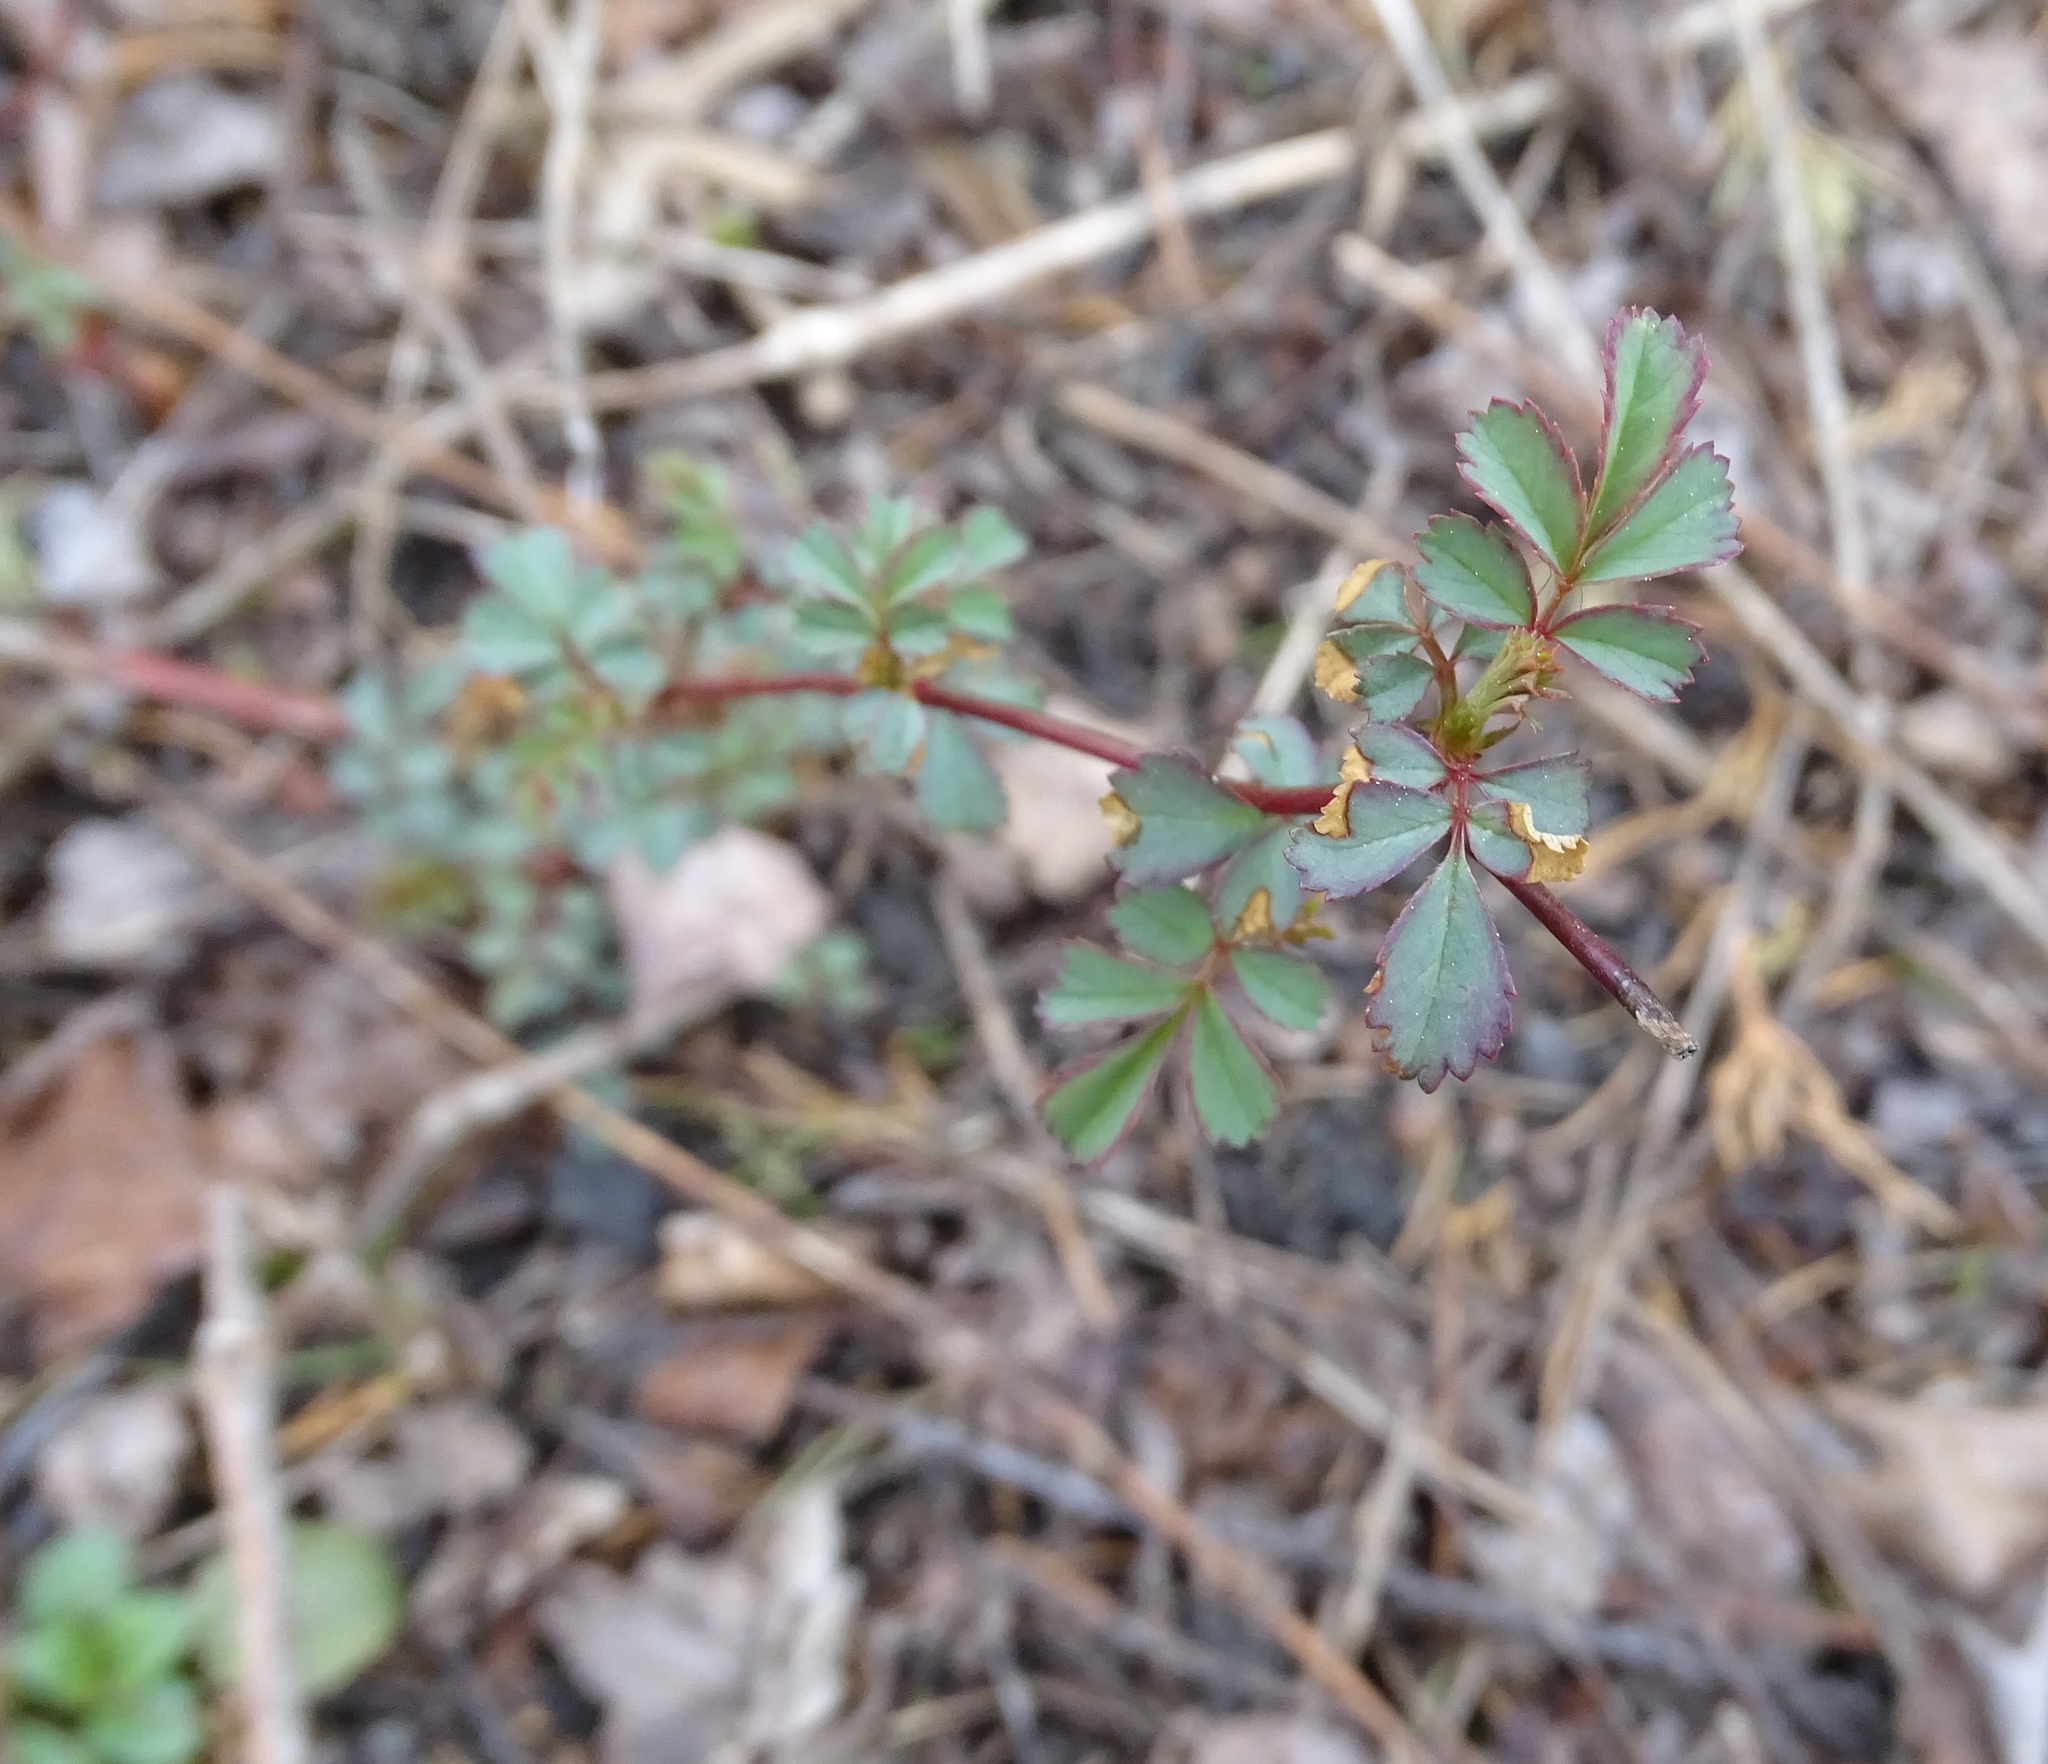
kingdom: Plantae
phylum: Tracheophyta
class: Magnoliopsida
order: Rosales
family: Rosaceae
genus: Rosa
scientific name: Rosa multiflora
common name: Multiflora rose
